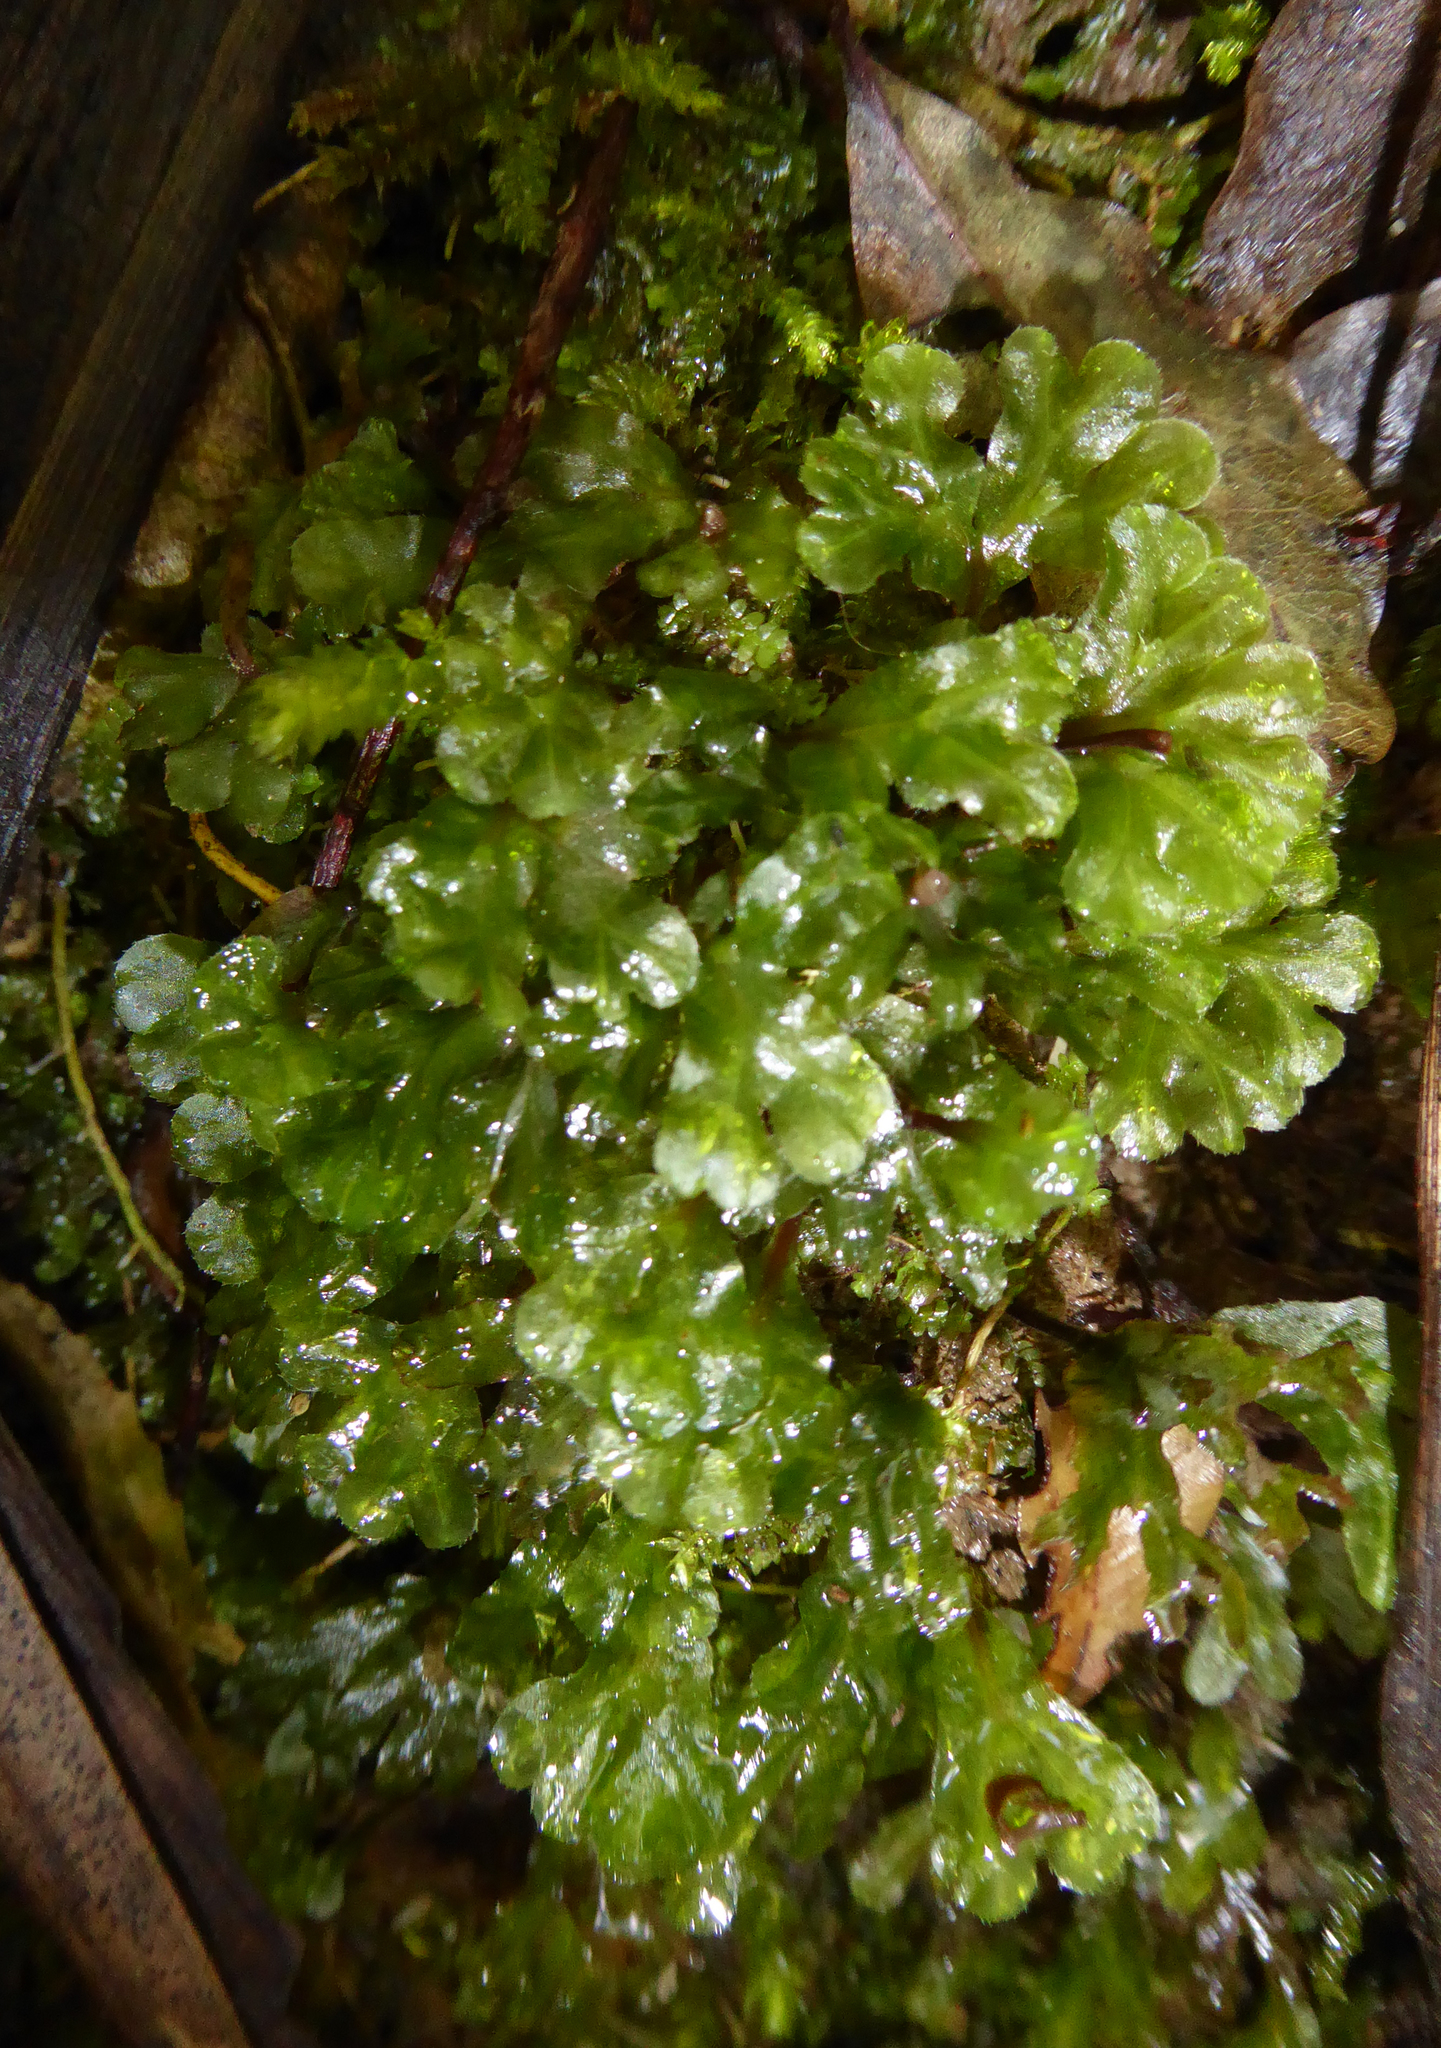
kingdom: Plantae
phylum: Marchantiophyta
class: Jungermanniopsida
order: Pallaviciniales
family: Pallaviciniaceae
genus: Symphyogyna
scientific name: Symphyogyna hymenophyllum
